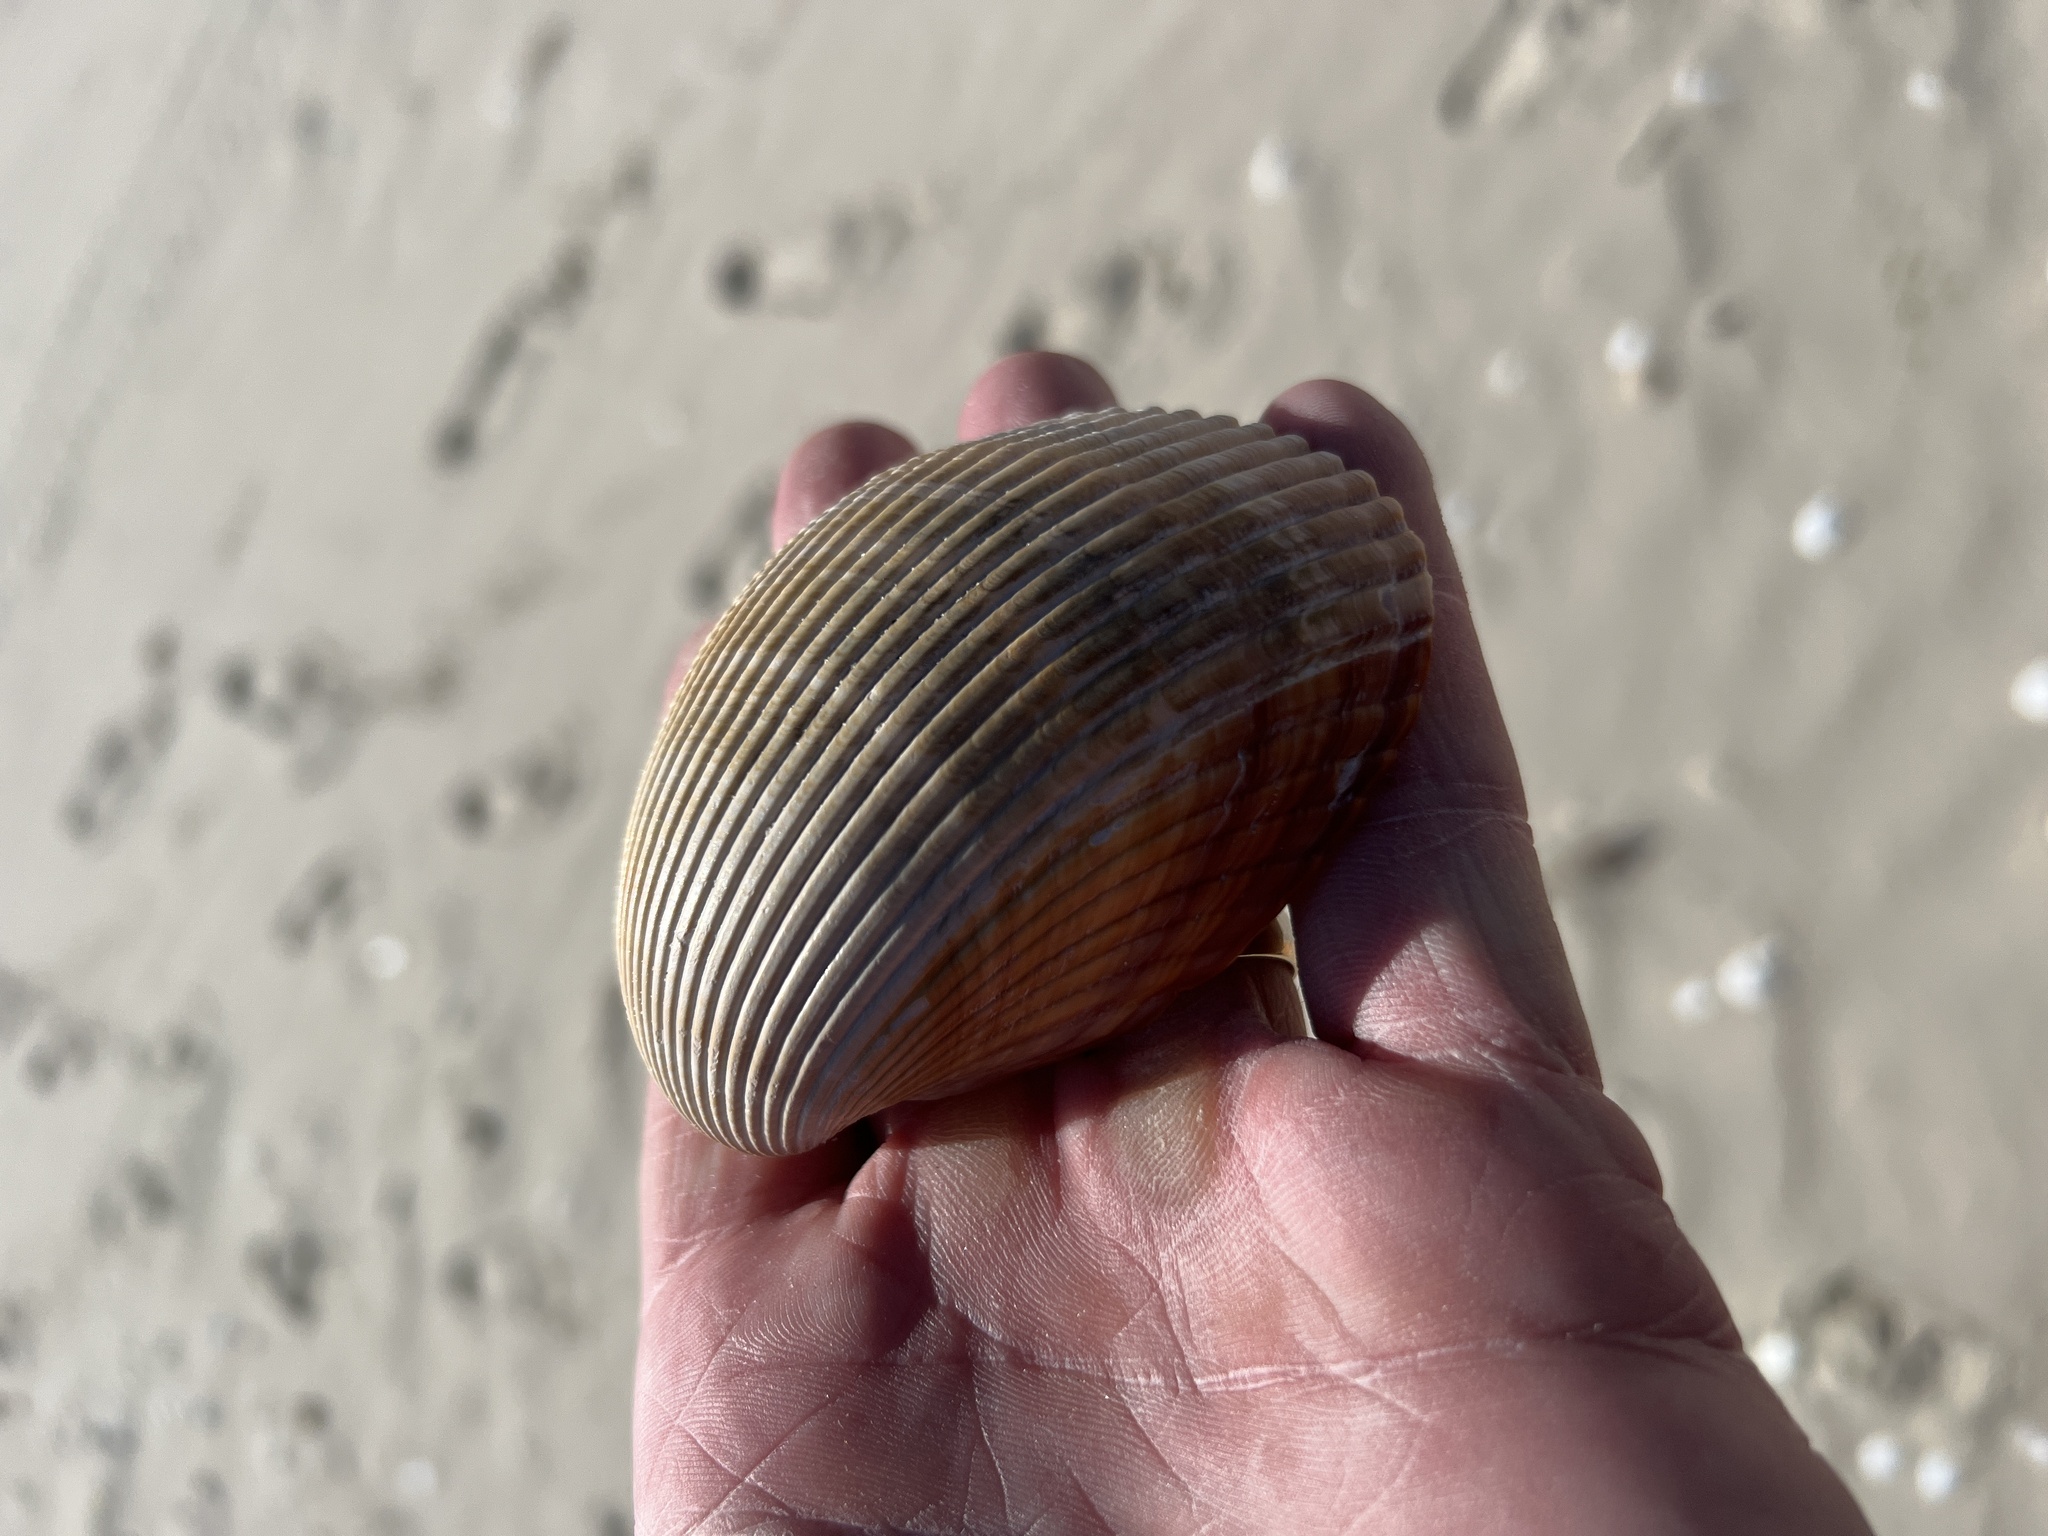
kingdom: Animalia
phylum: Mollusca
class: Bivalvia
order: Cardiida
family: Cardiidae
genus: Dinocardium
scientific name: Dinocardium robustum
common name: Atlantic giant cockle
